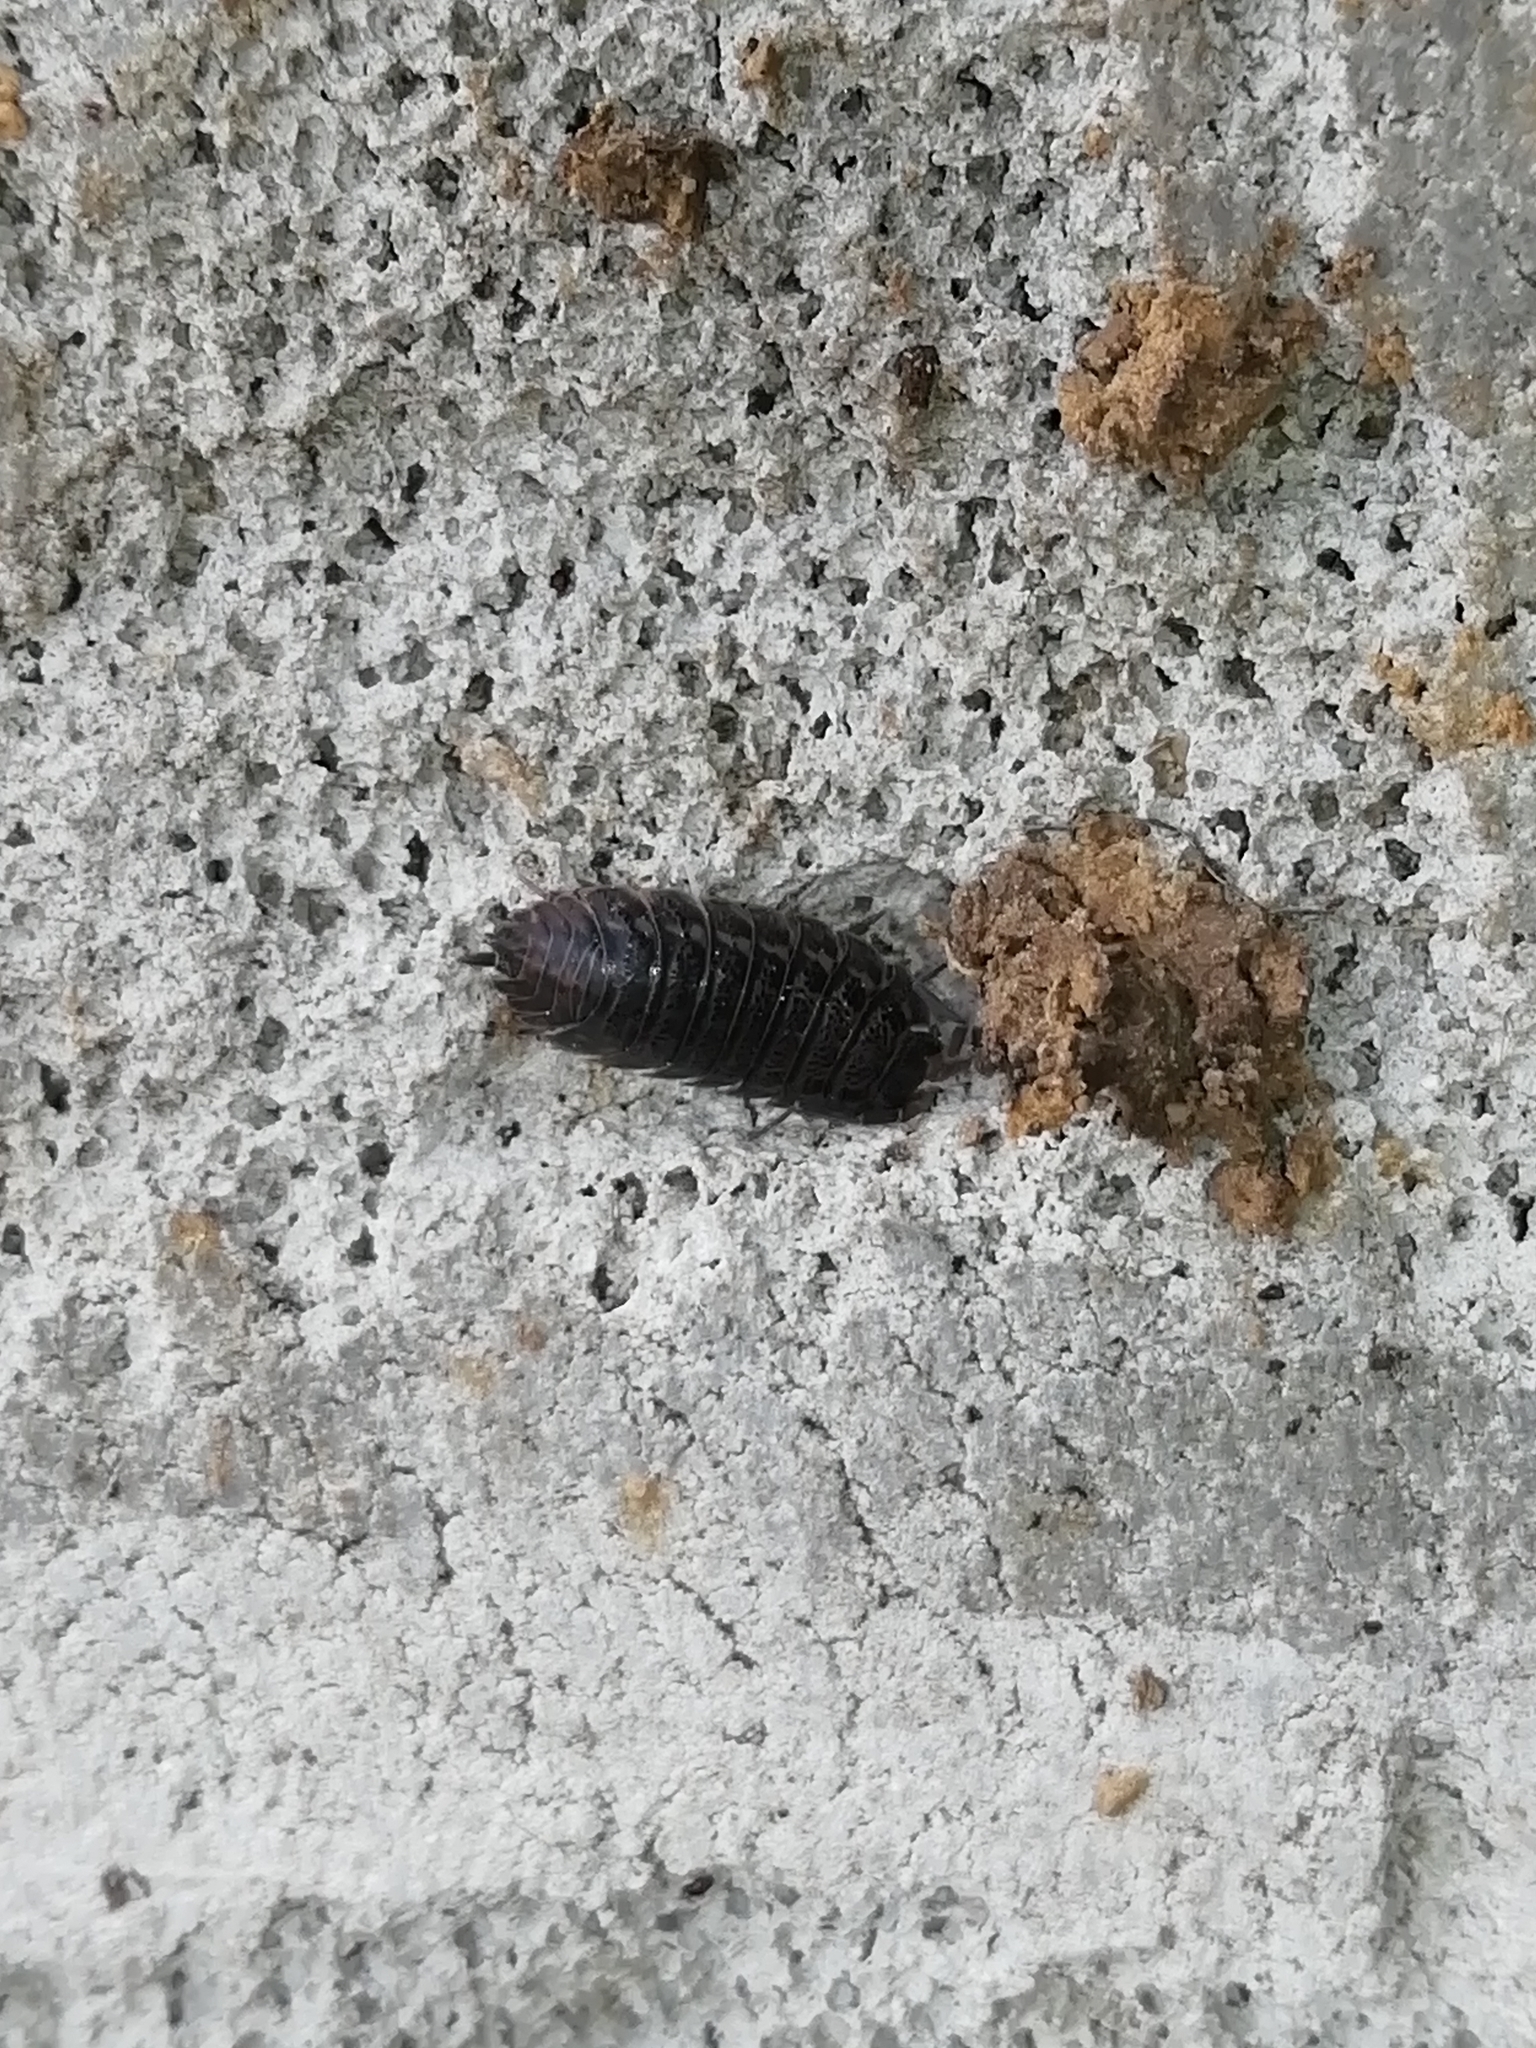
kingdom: Animalia
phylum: Arthropoda
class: Malacostraca
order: Isopoda
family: Trachelipodidae
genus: Trachelipus
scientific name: Trachelipus rathkii
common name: Isopod
